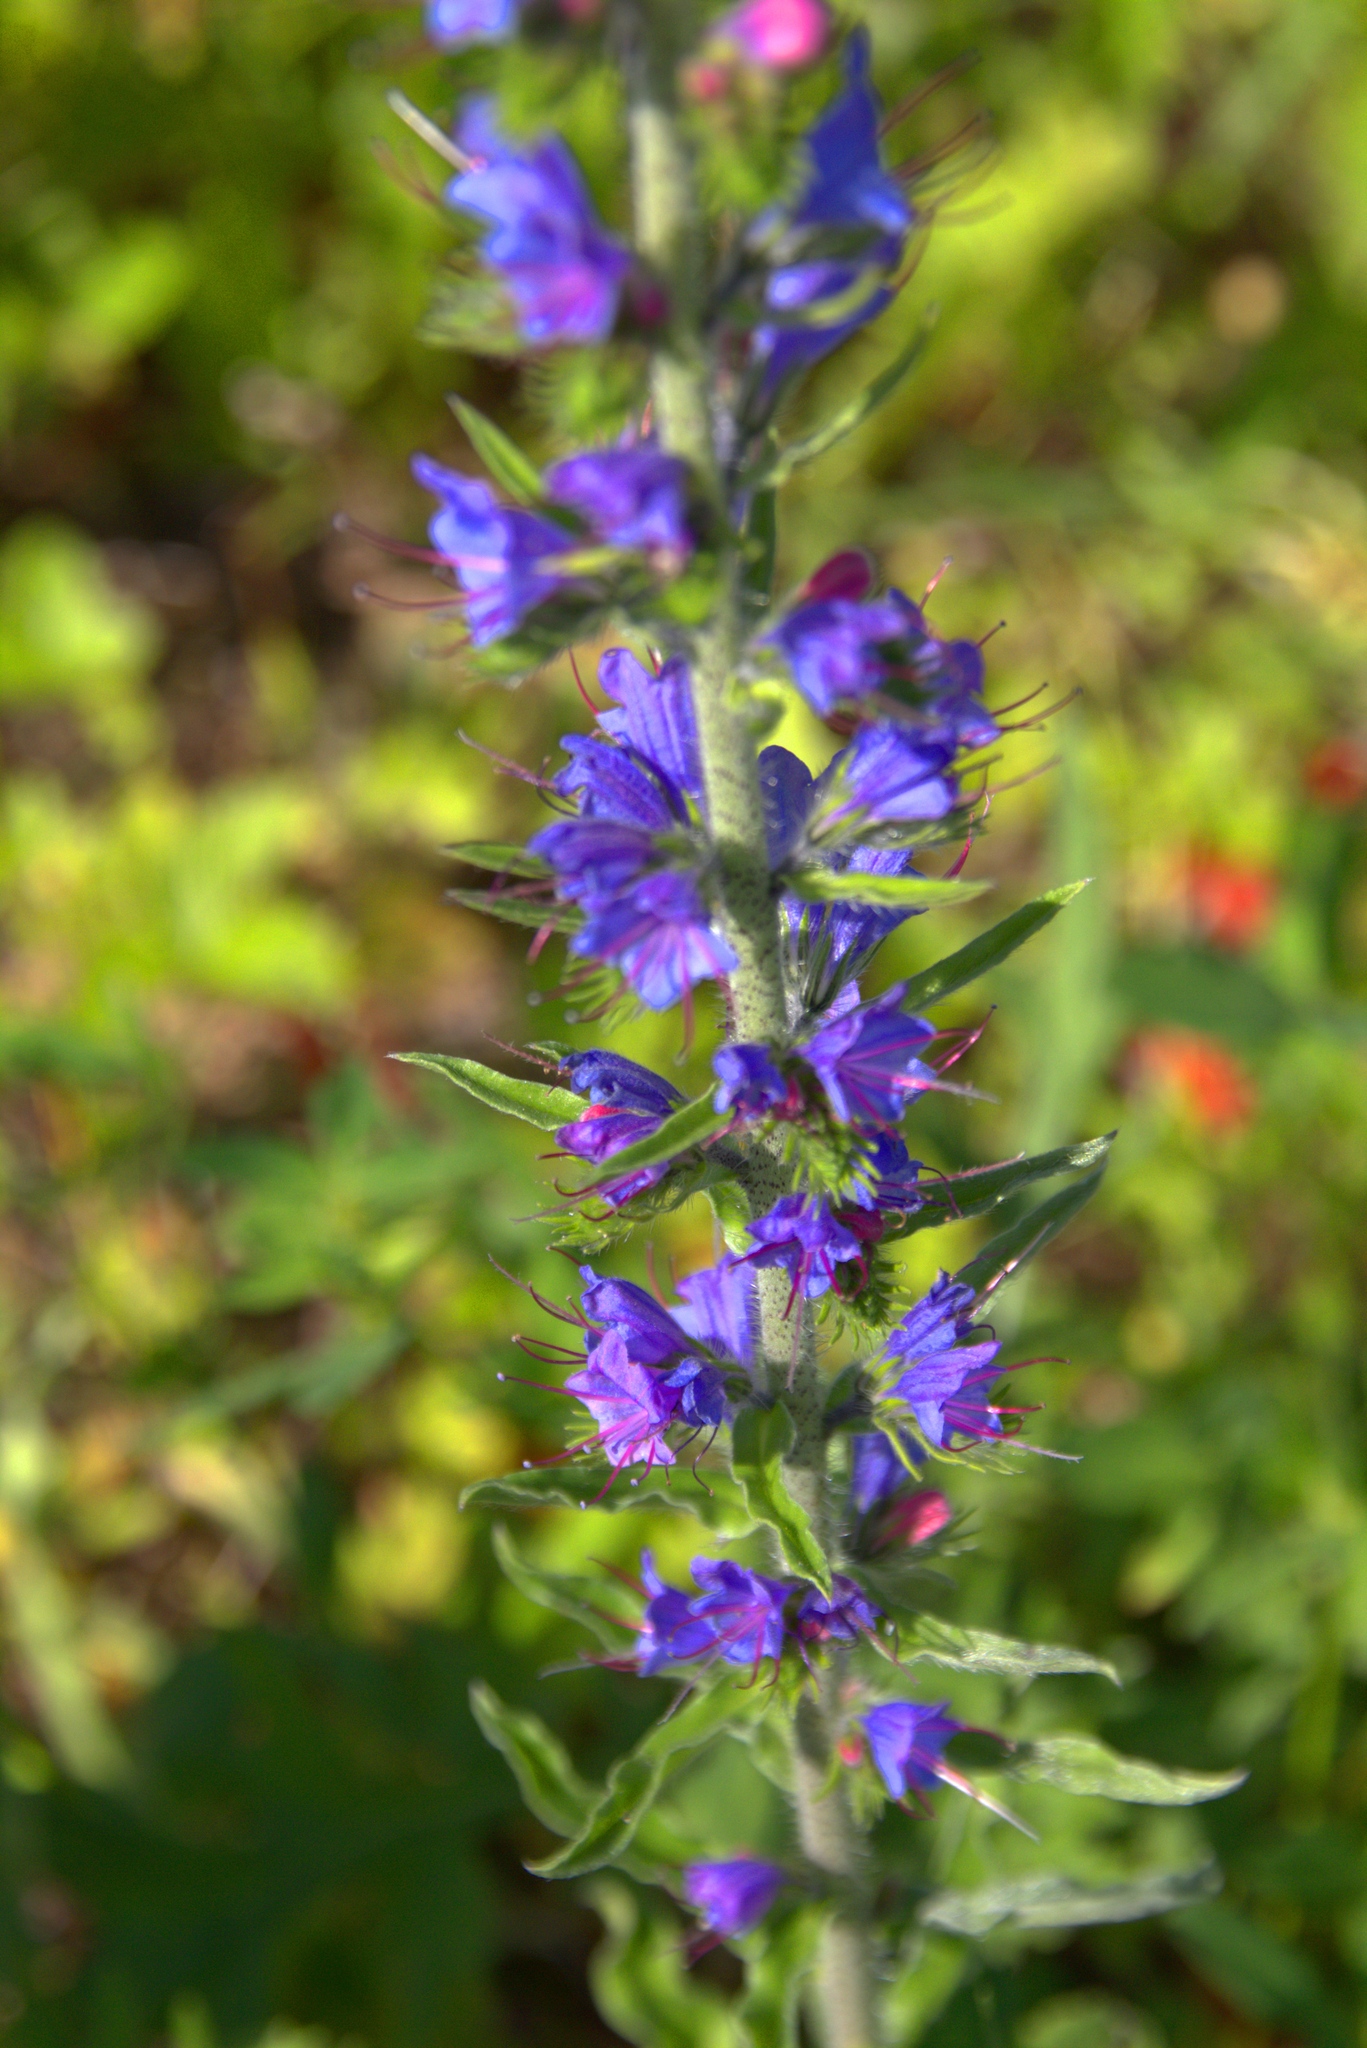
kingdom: Plantae
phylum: Tracheophyta
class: Magnoliopsida
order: Boraginales
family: Boraginaceae
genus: Echium
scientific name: Echium vulgare
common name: Common viper's bugloss
